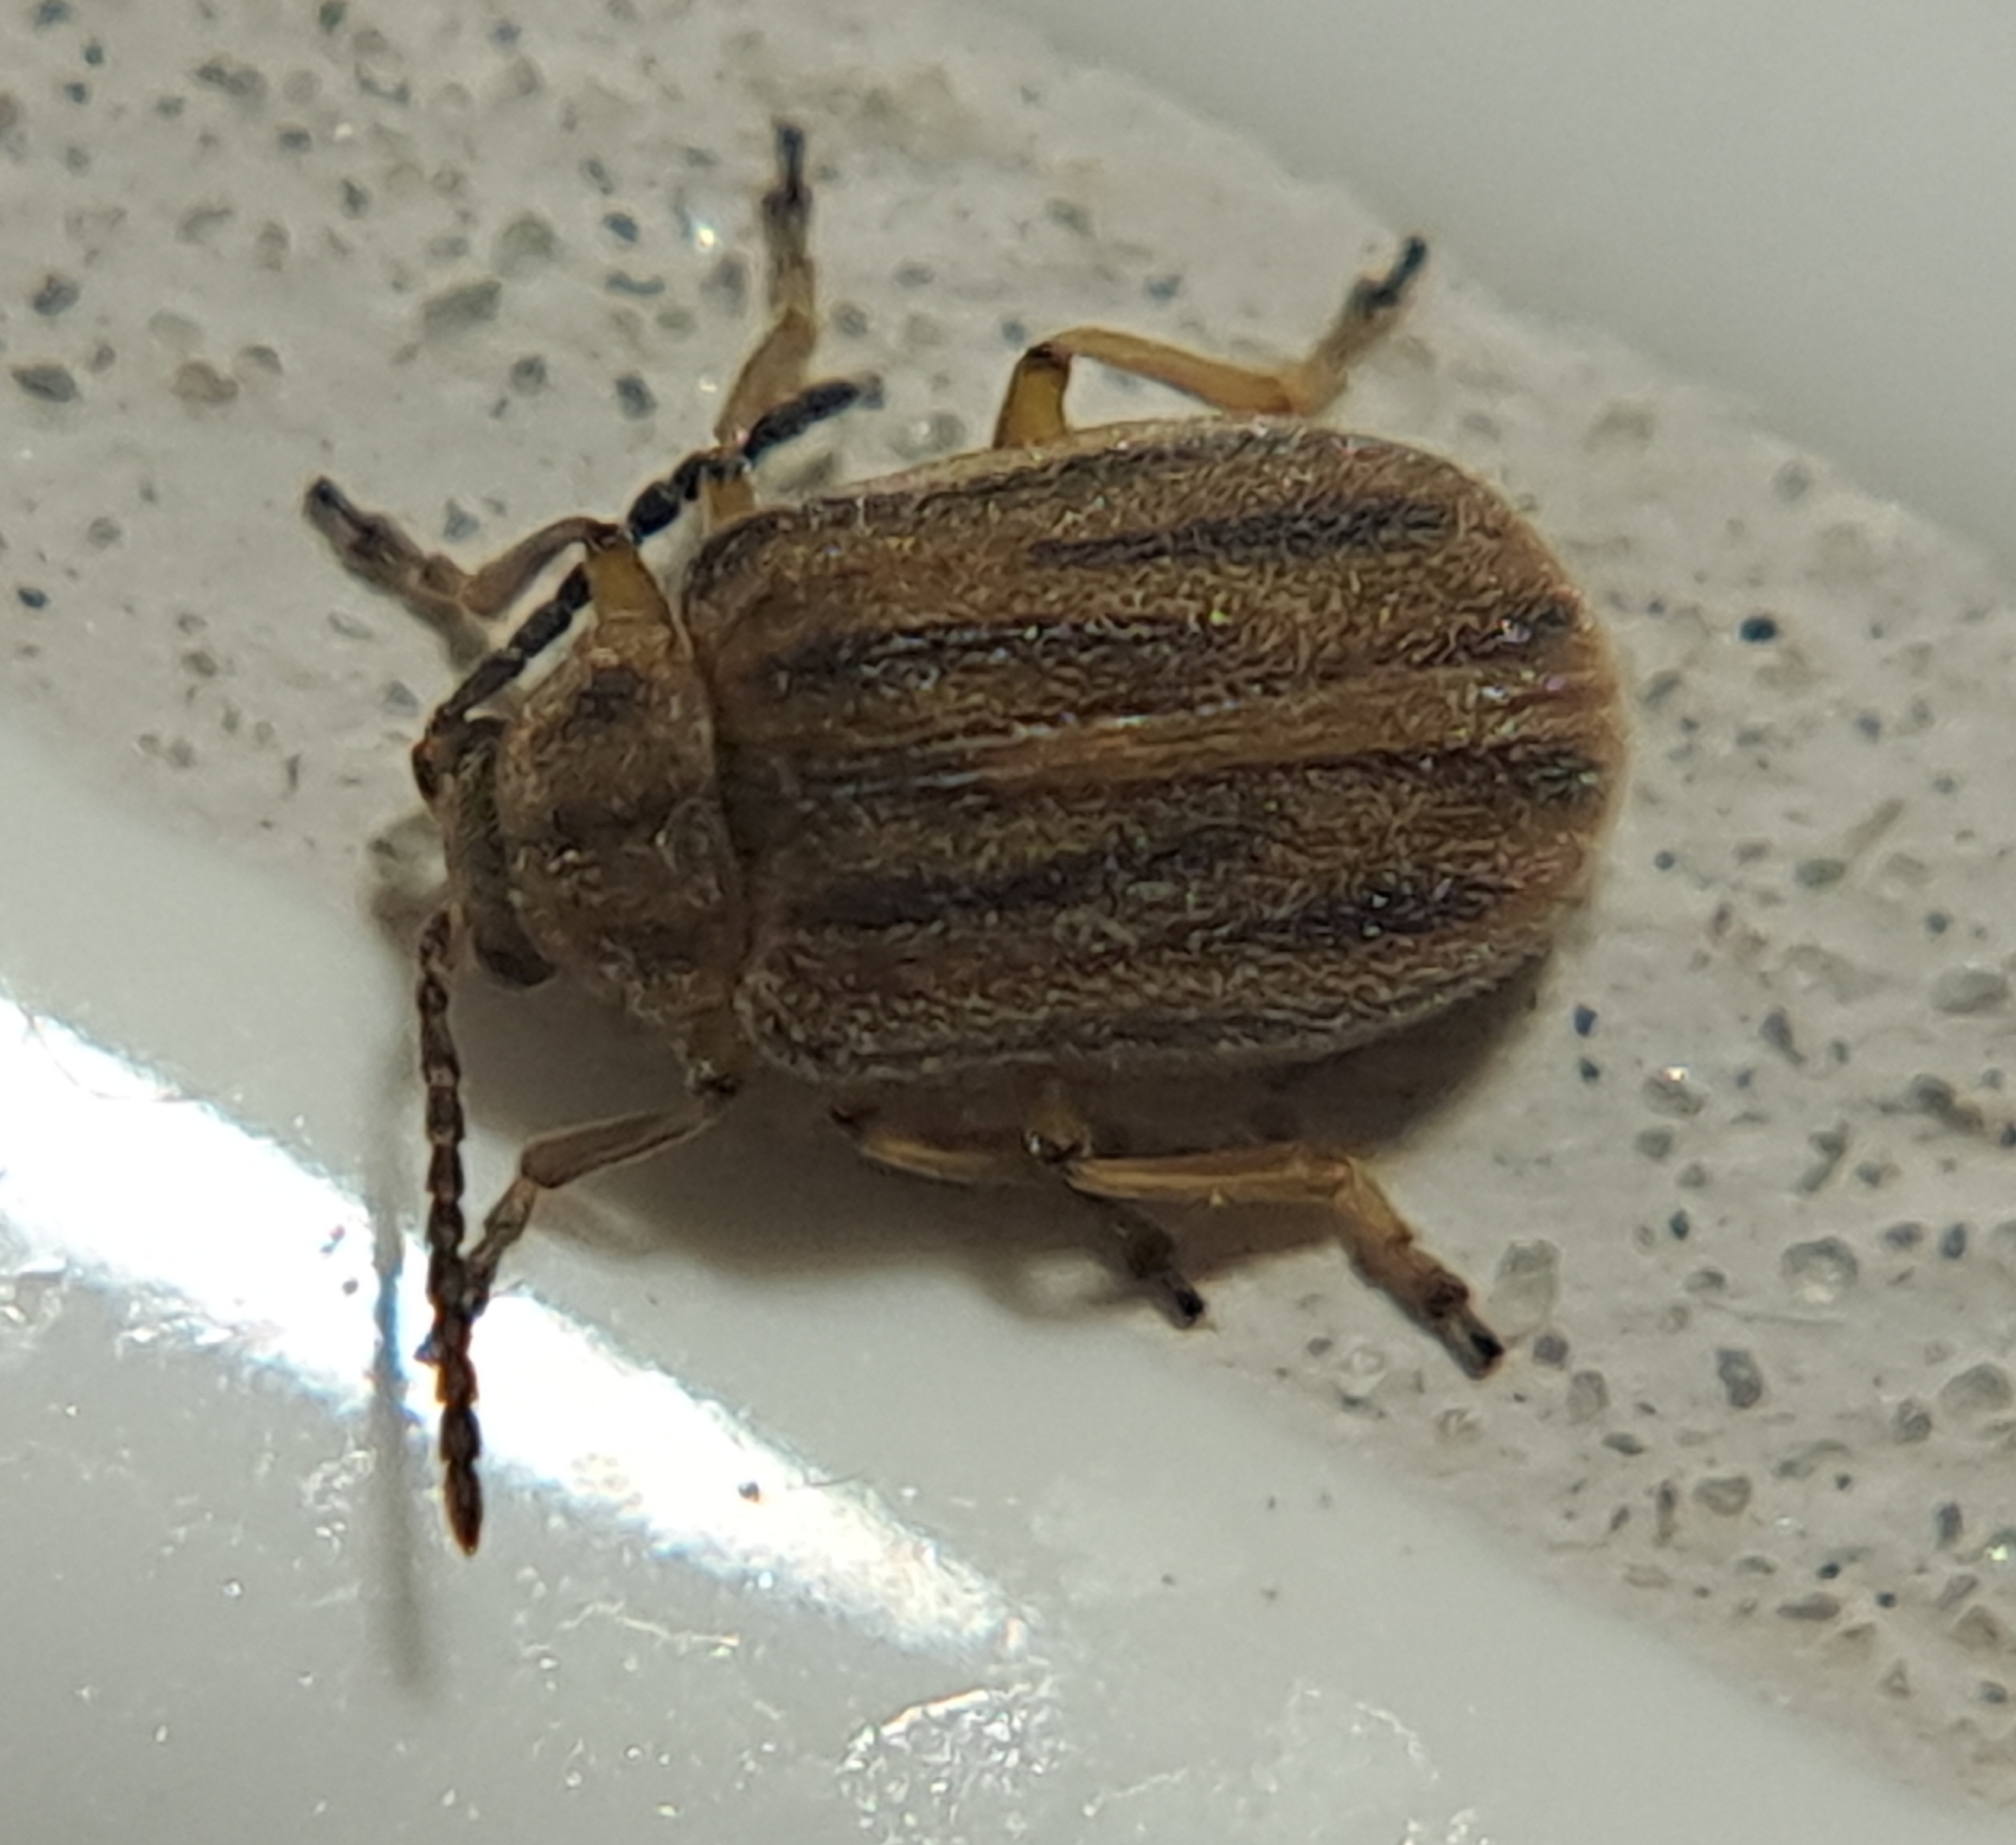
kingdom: Animalia
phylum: Arthropoda
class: Insecta
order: Coleoptera
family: Chrysomelidae
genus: Ophraella
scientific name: Ophraella communa
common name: Ragweed leaf beetle
